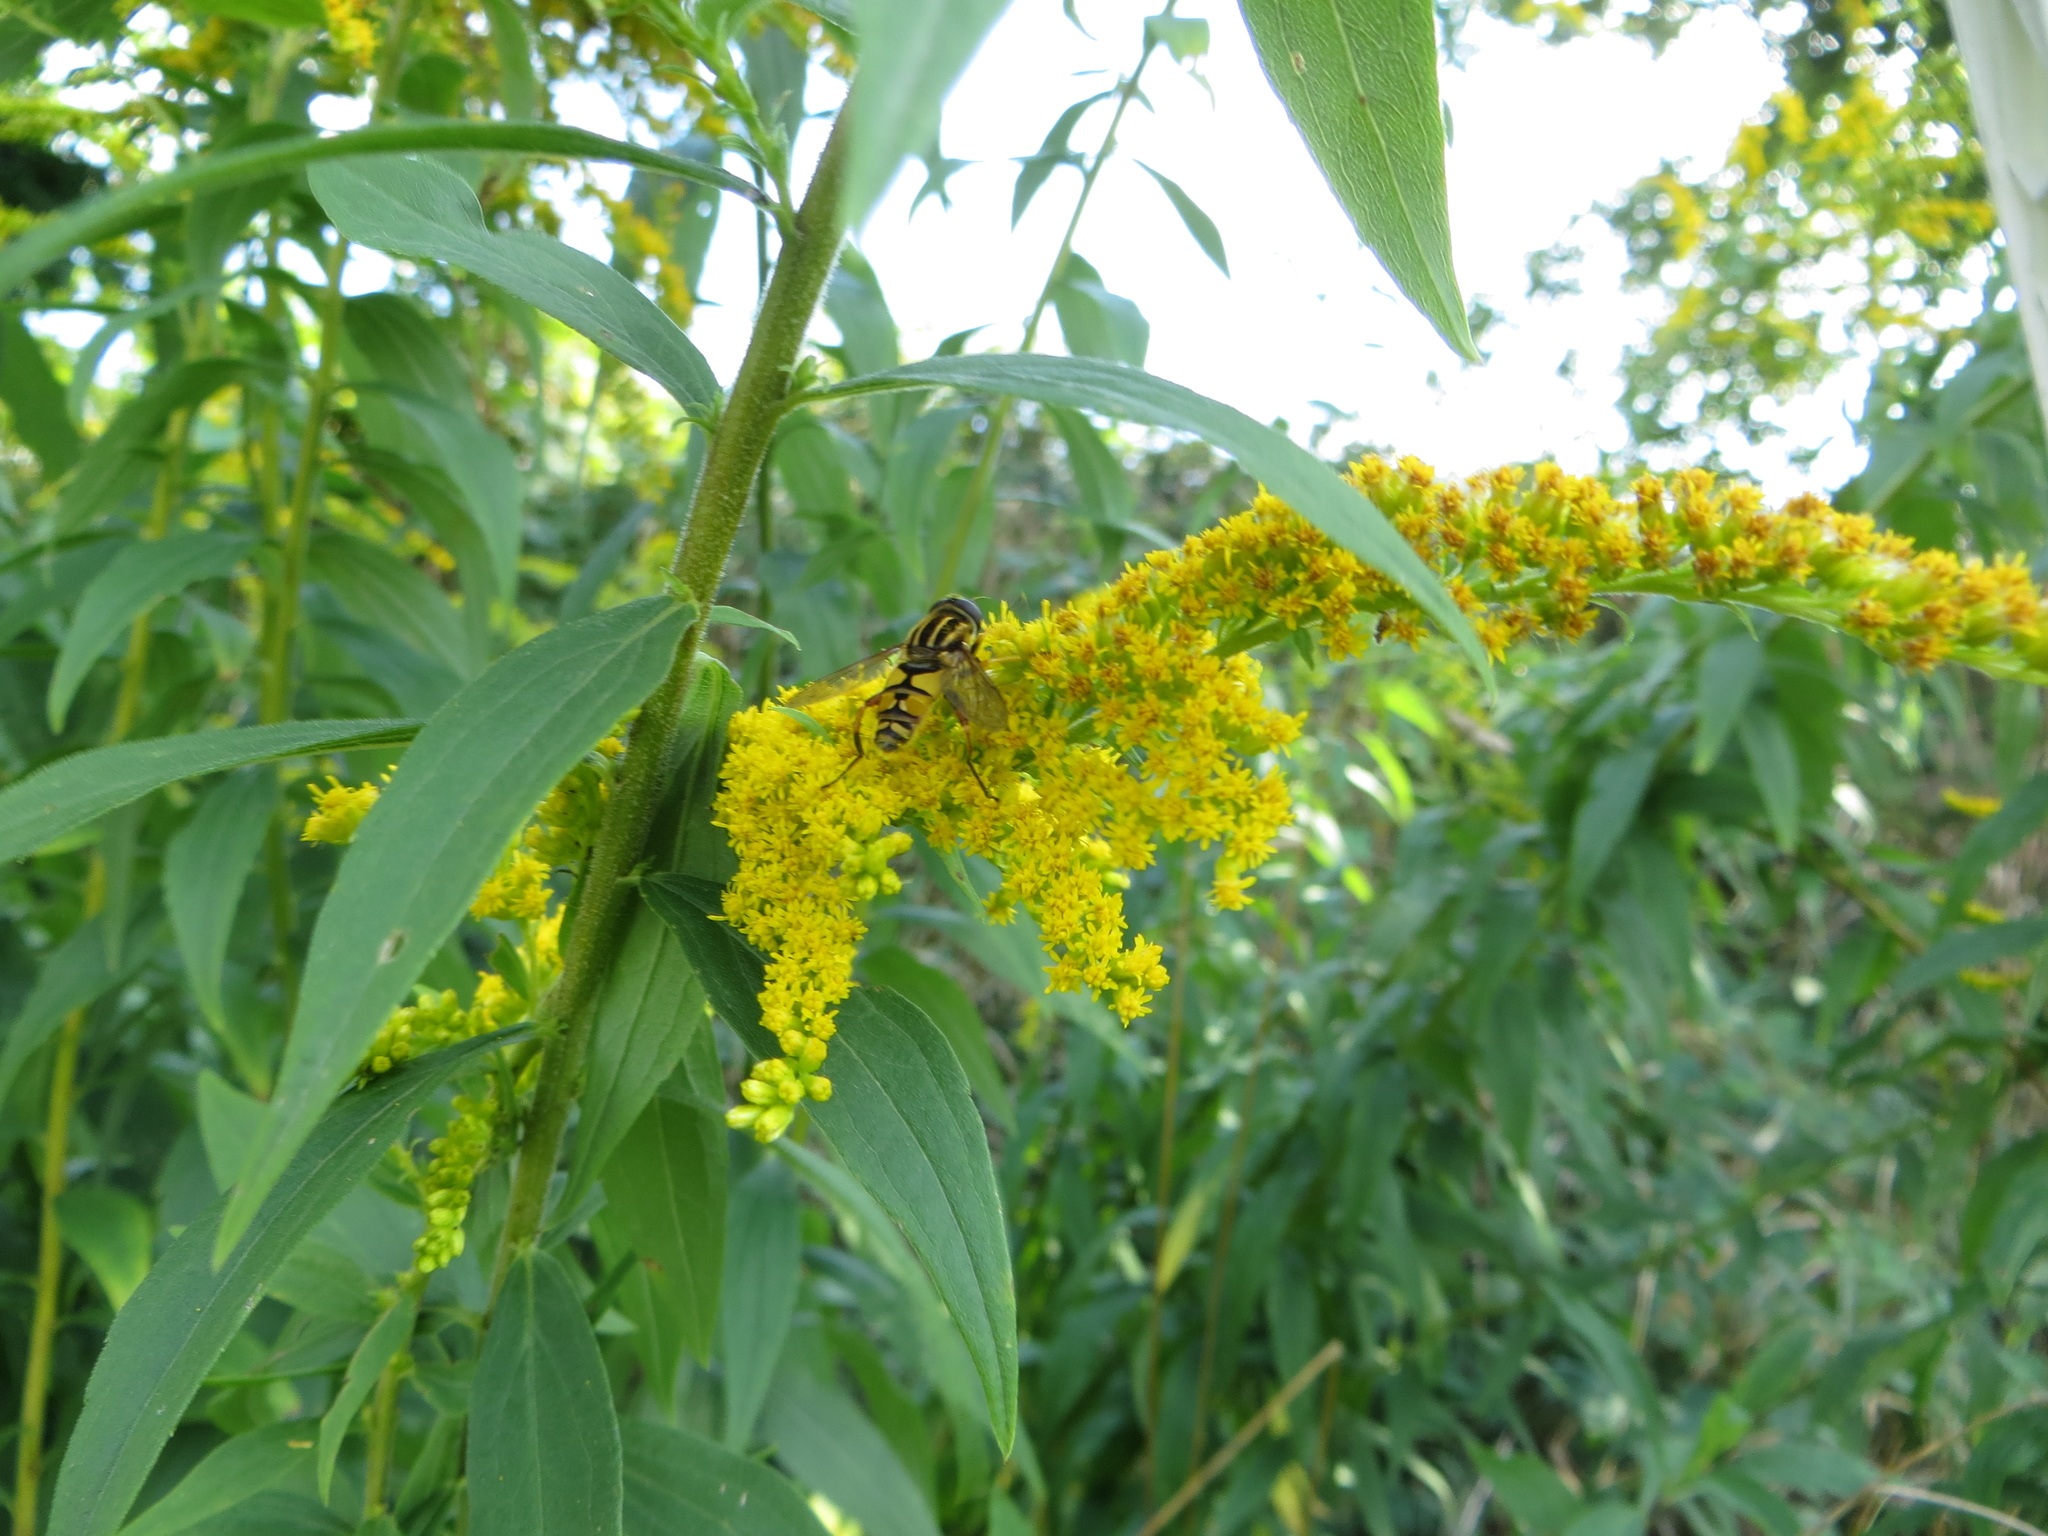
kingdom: Animalia
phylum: Arthropoda
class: Insecta
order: Diptera
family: Syrphidae
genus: Helophilus
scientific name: Helophilus pendulus
